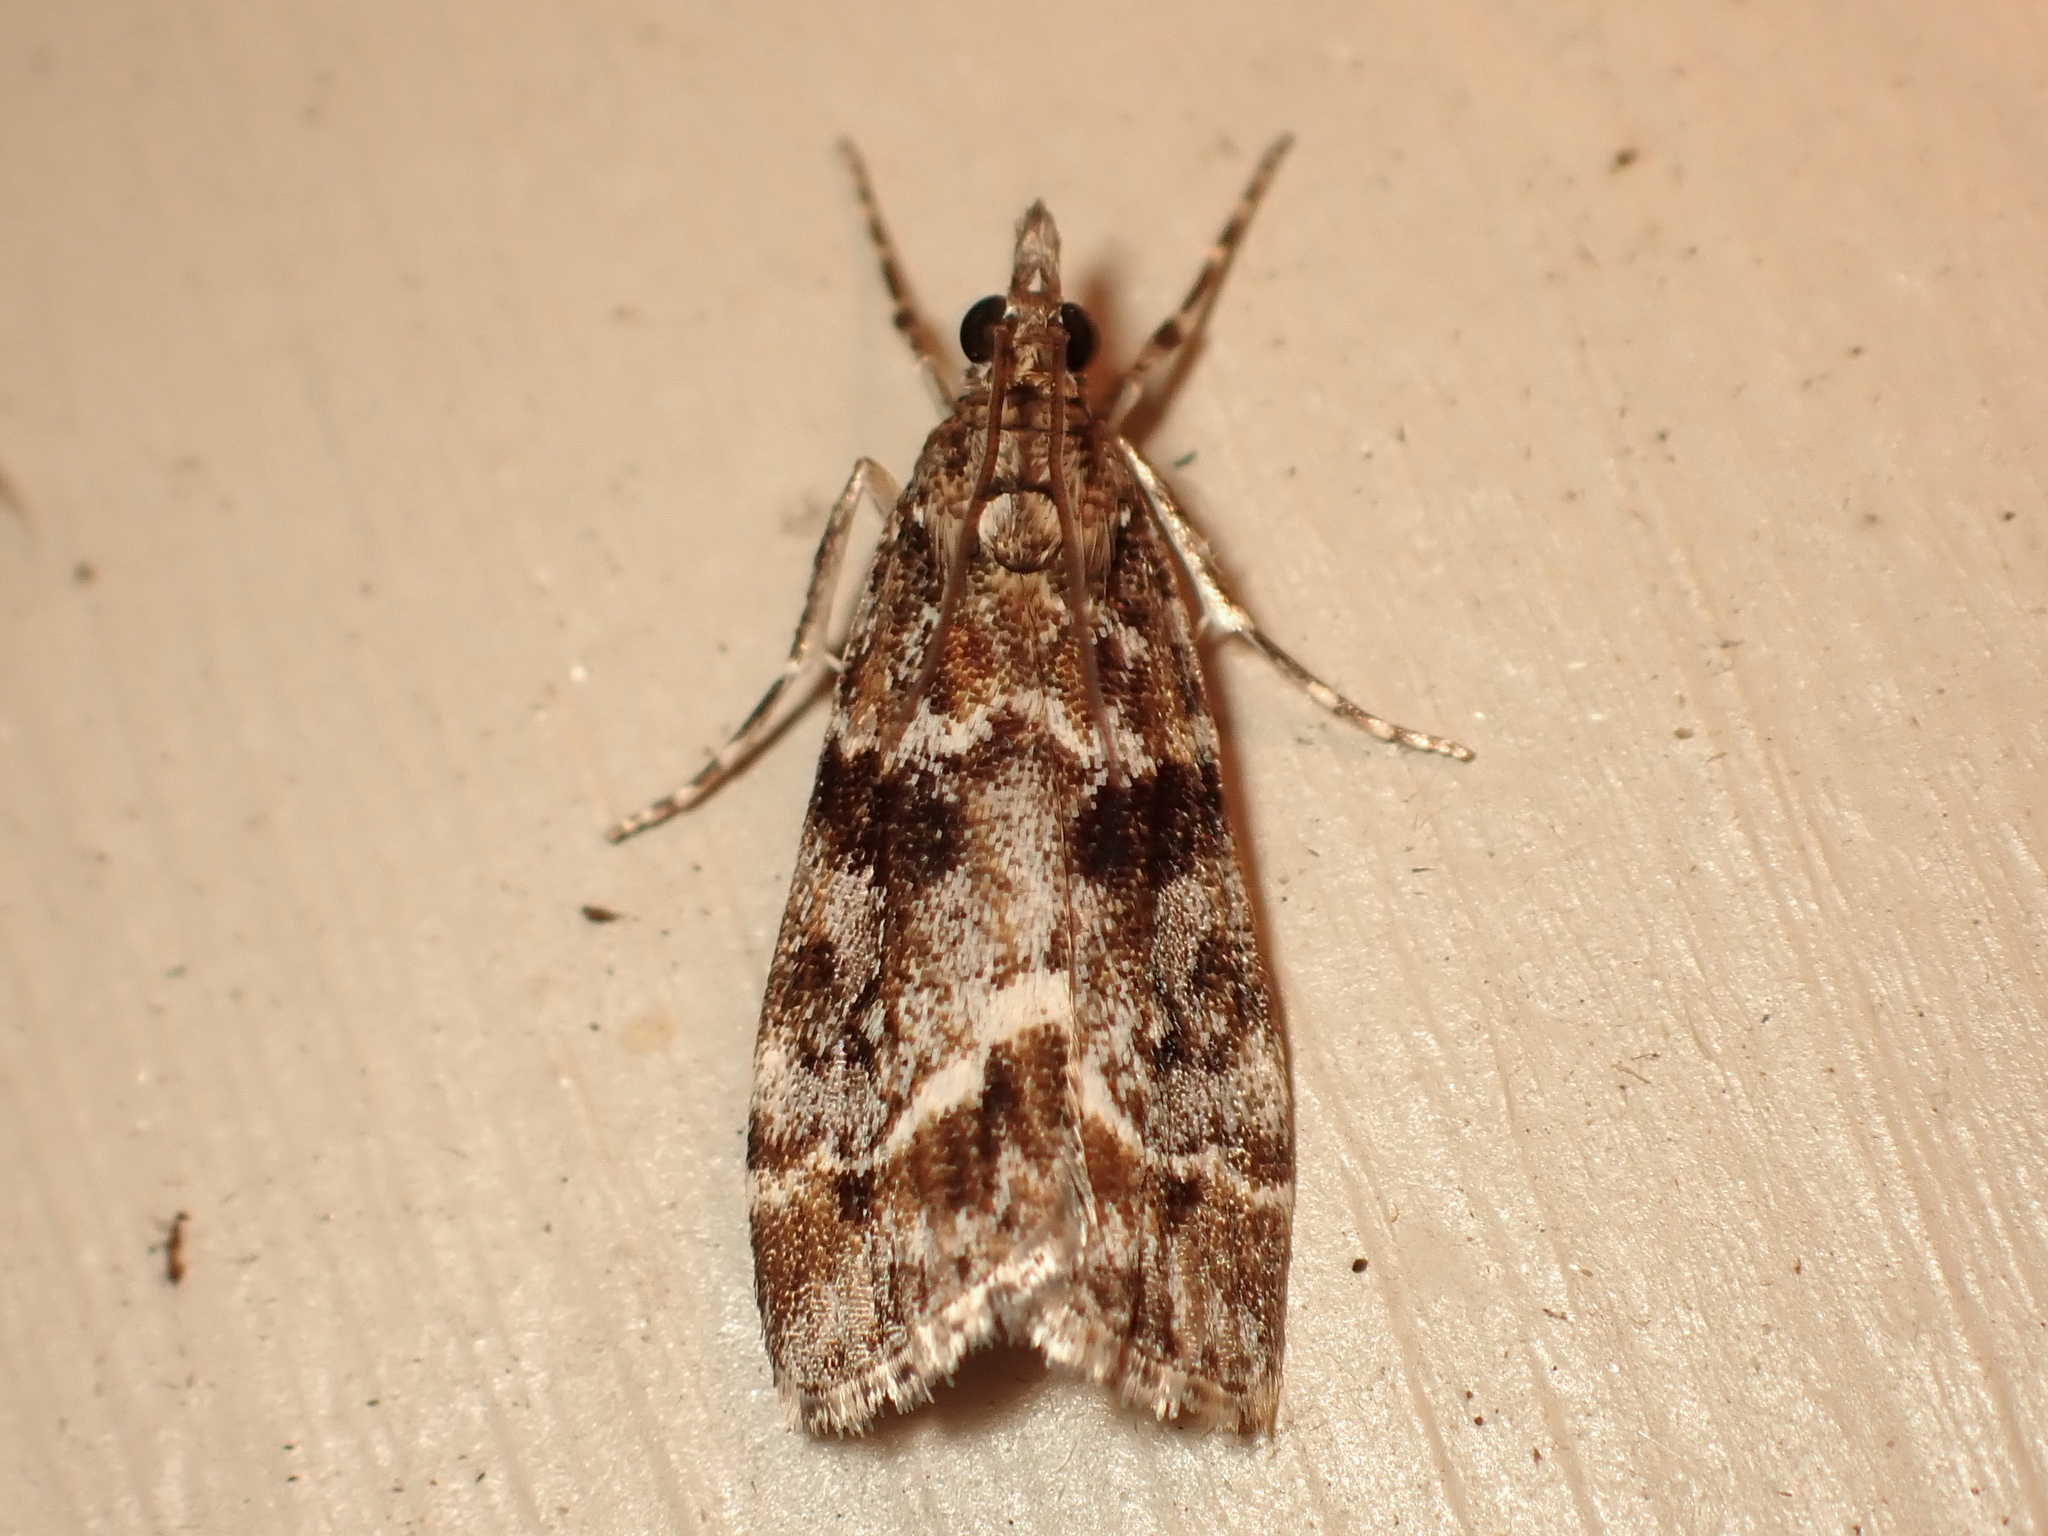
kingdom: Animalia
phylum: Arthropoda
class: Insecta
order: Lepidoptera
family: Crambidae
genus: Eudonia
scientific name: Eudonia legnota
